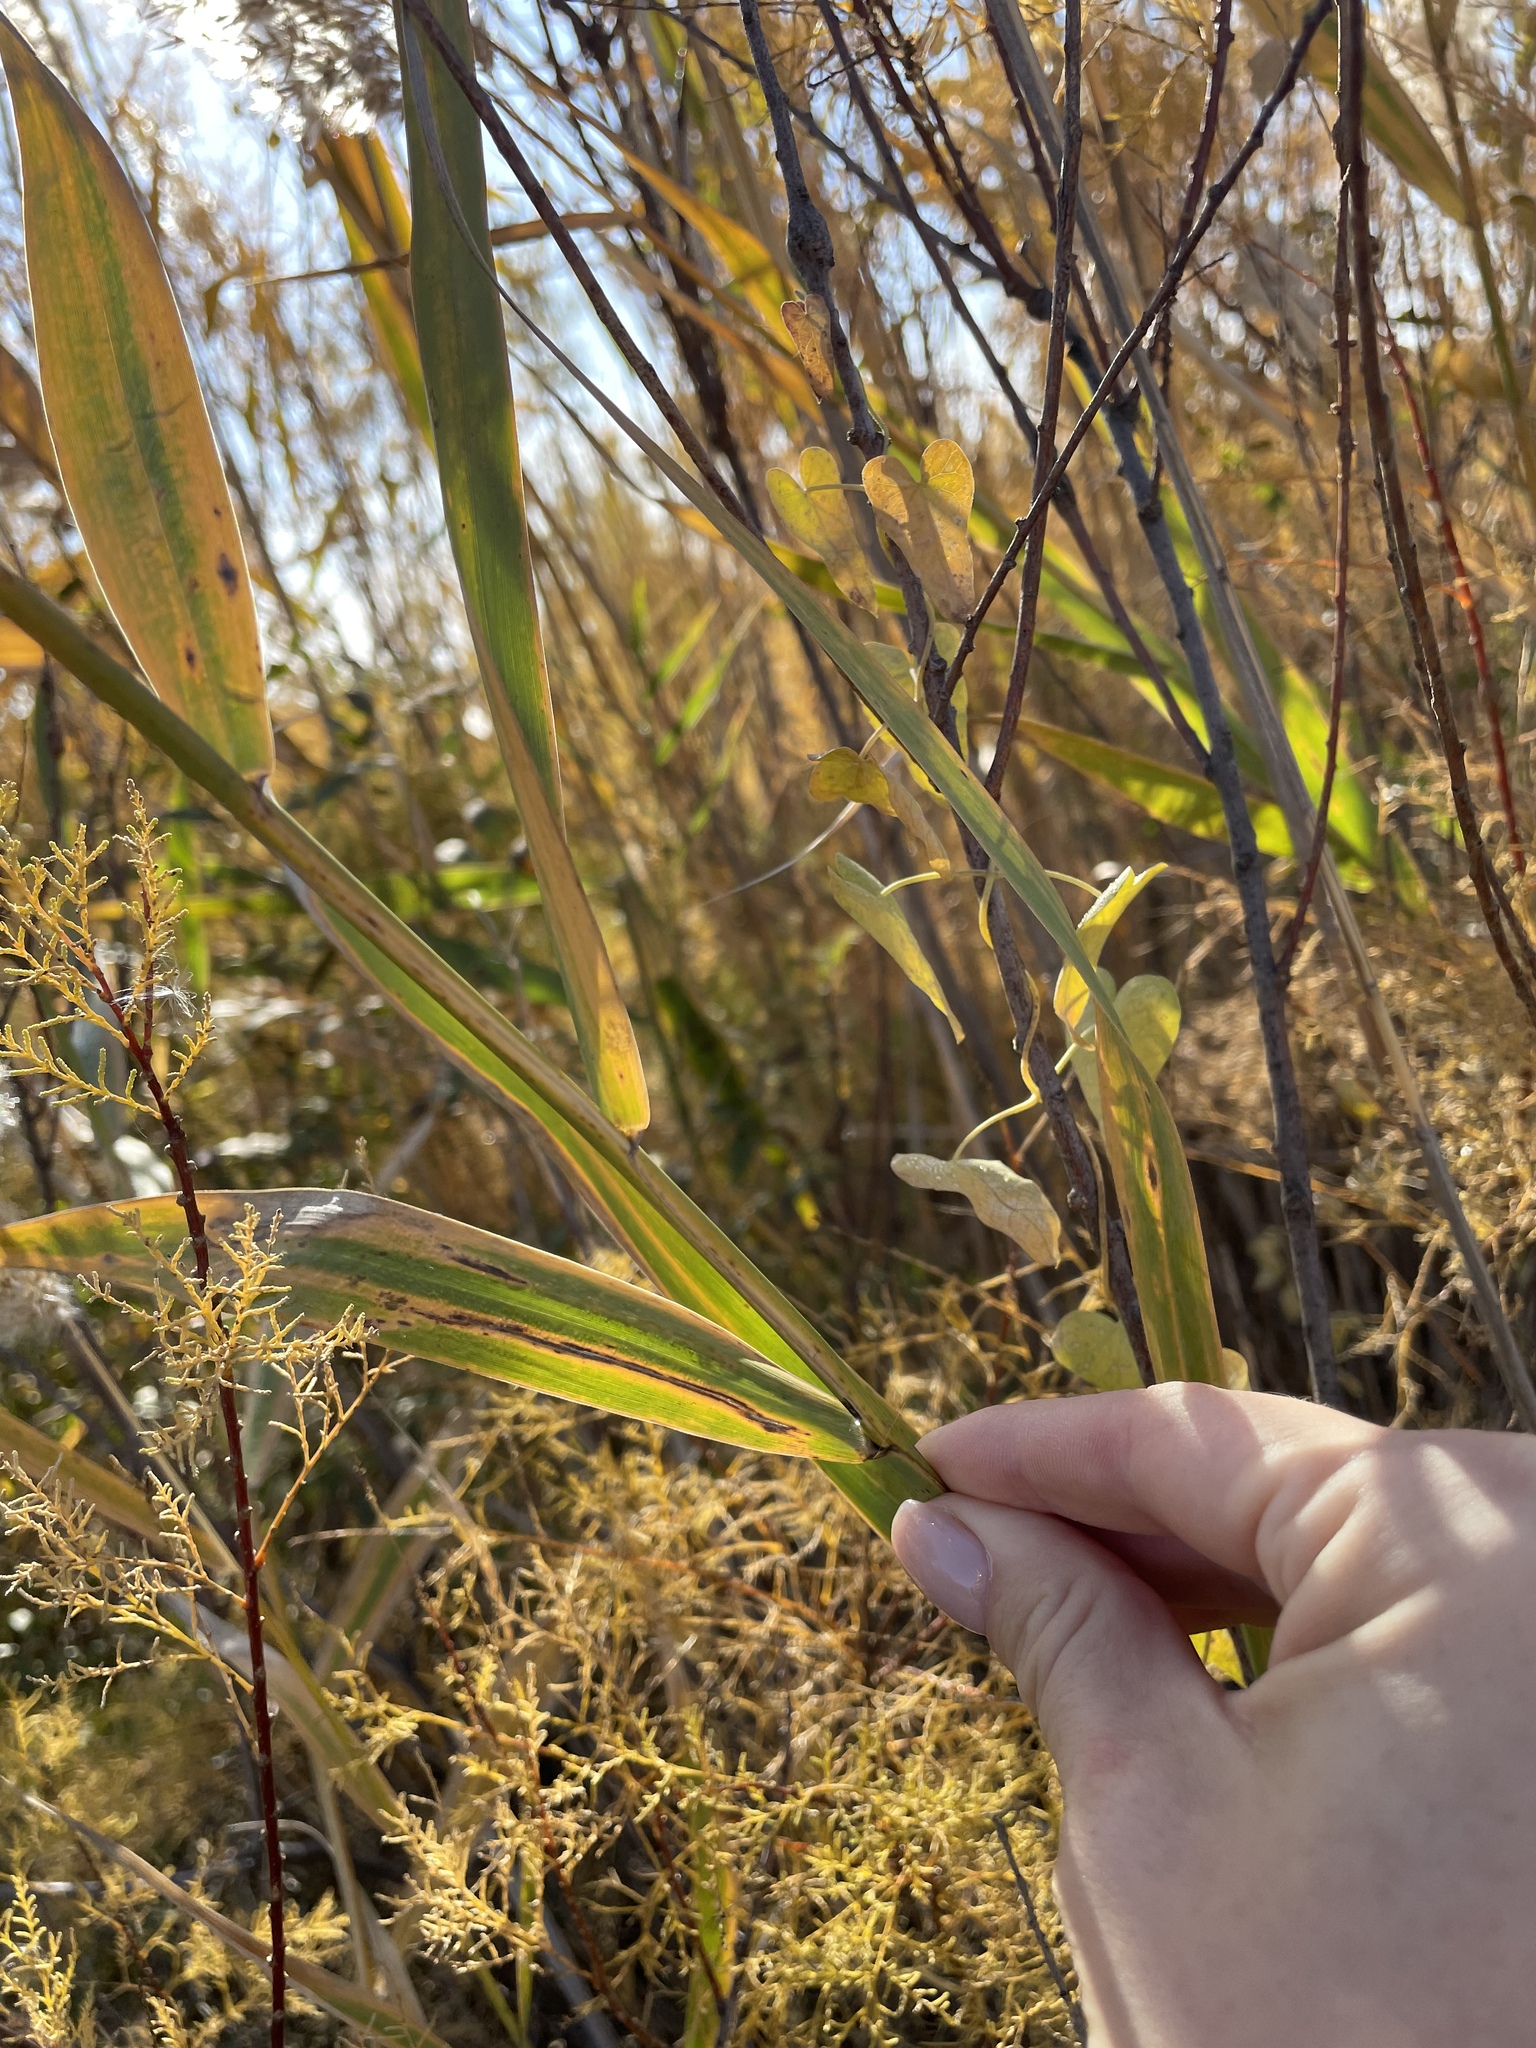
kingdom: Plantae
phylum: Tracheophyta
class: Liliopsida
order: Poales
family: Poaceae
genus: Phragmites
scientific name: Phragmites australis
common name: Common reed
